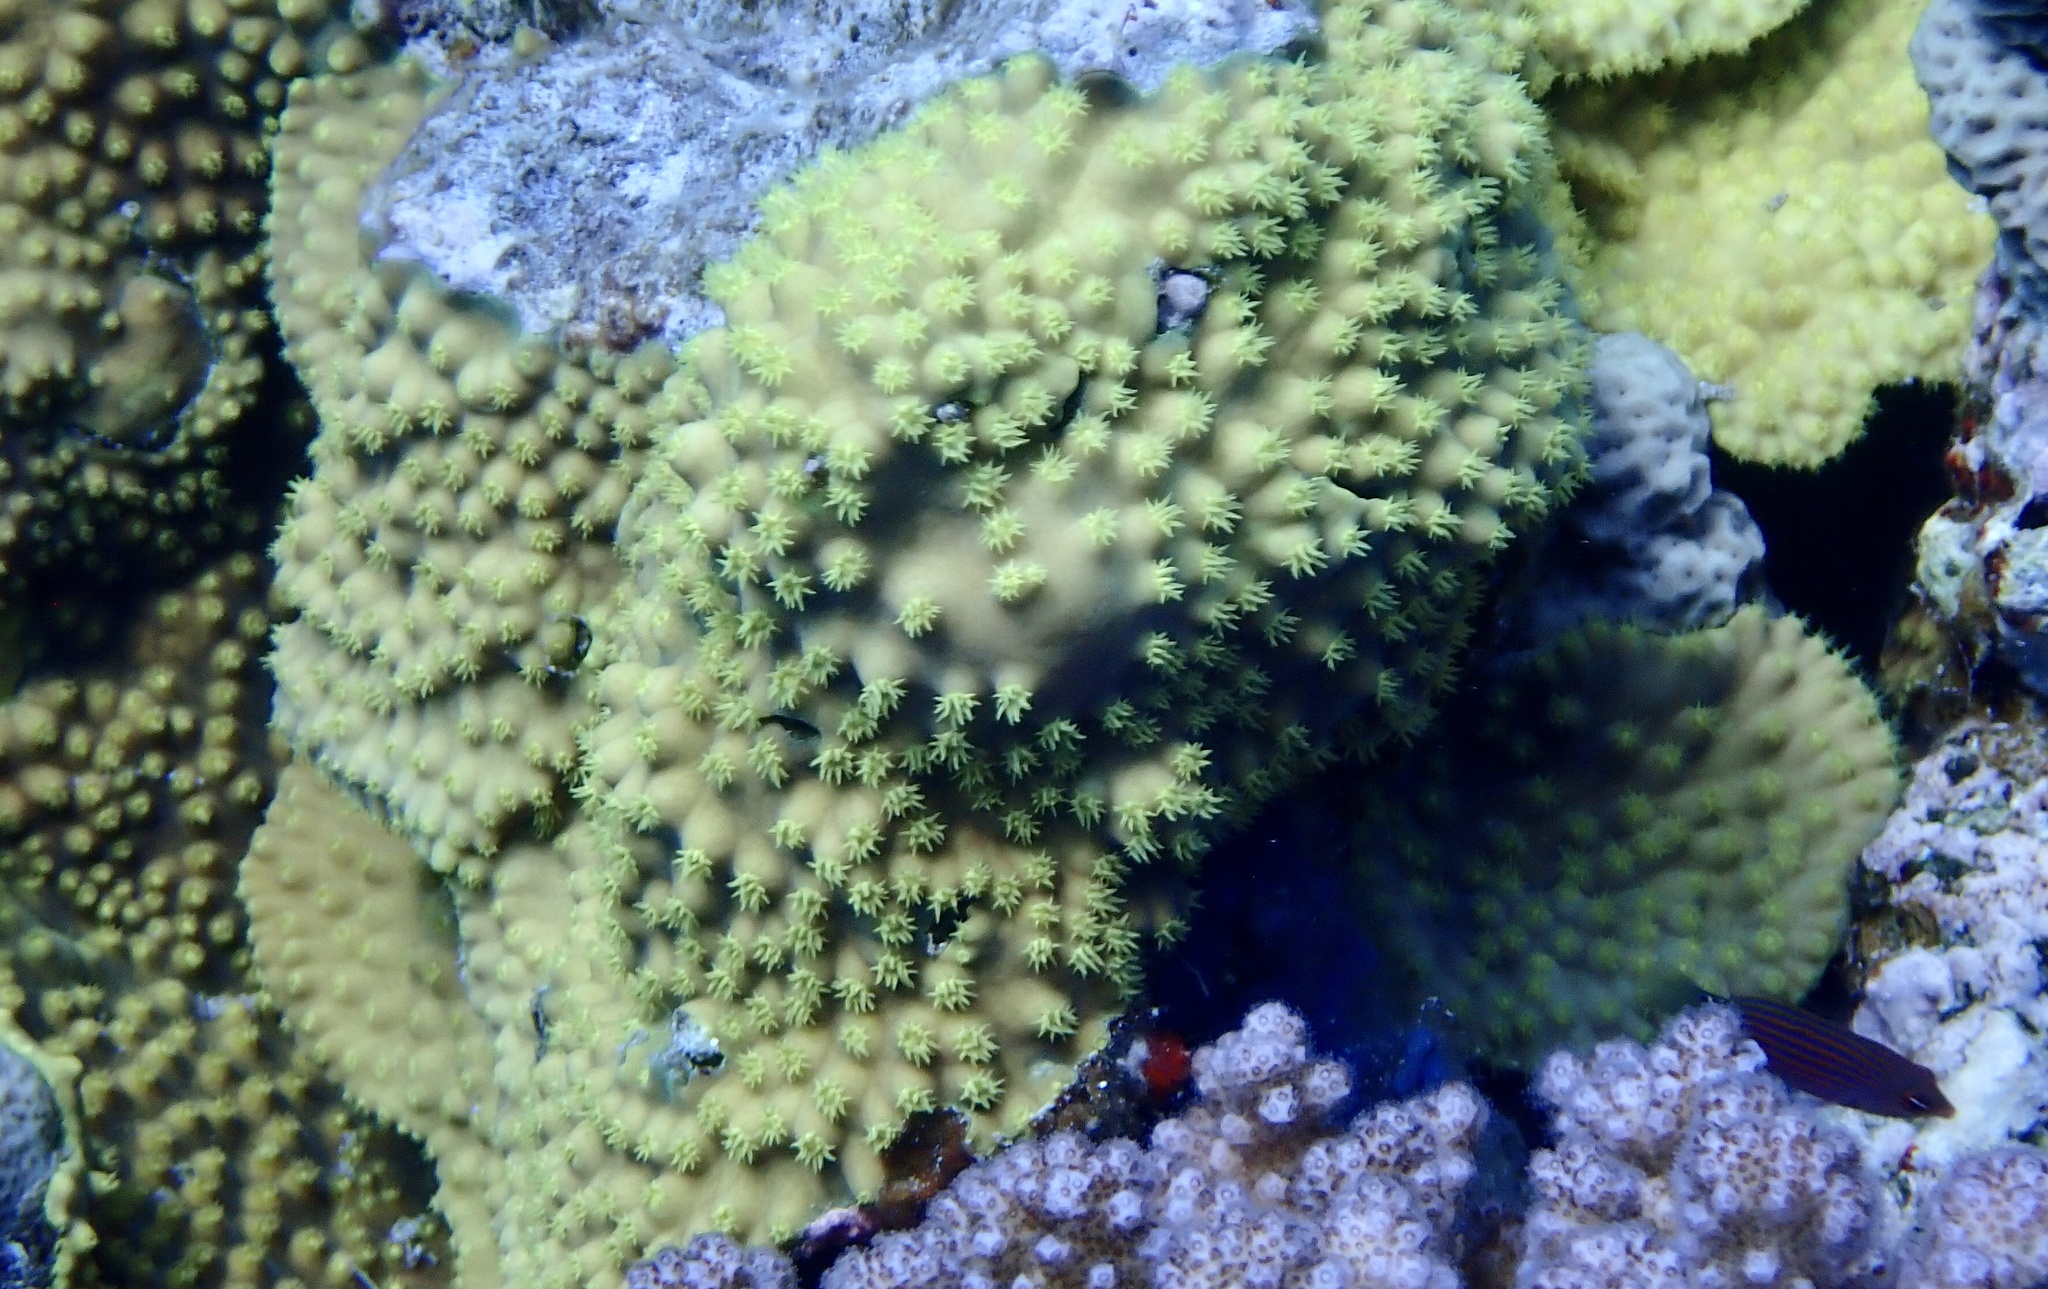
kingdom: Animalia
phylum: Cnidaria
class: Anthozoa
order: Scleractinia
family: Dendrophylliidae
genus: Turbinaria
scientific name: Turbinaria reniformis
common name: Disc coral
